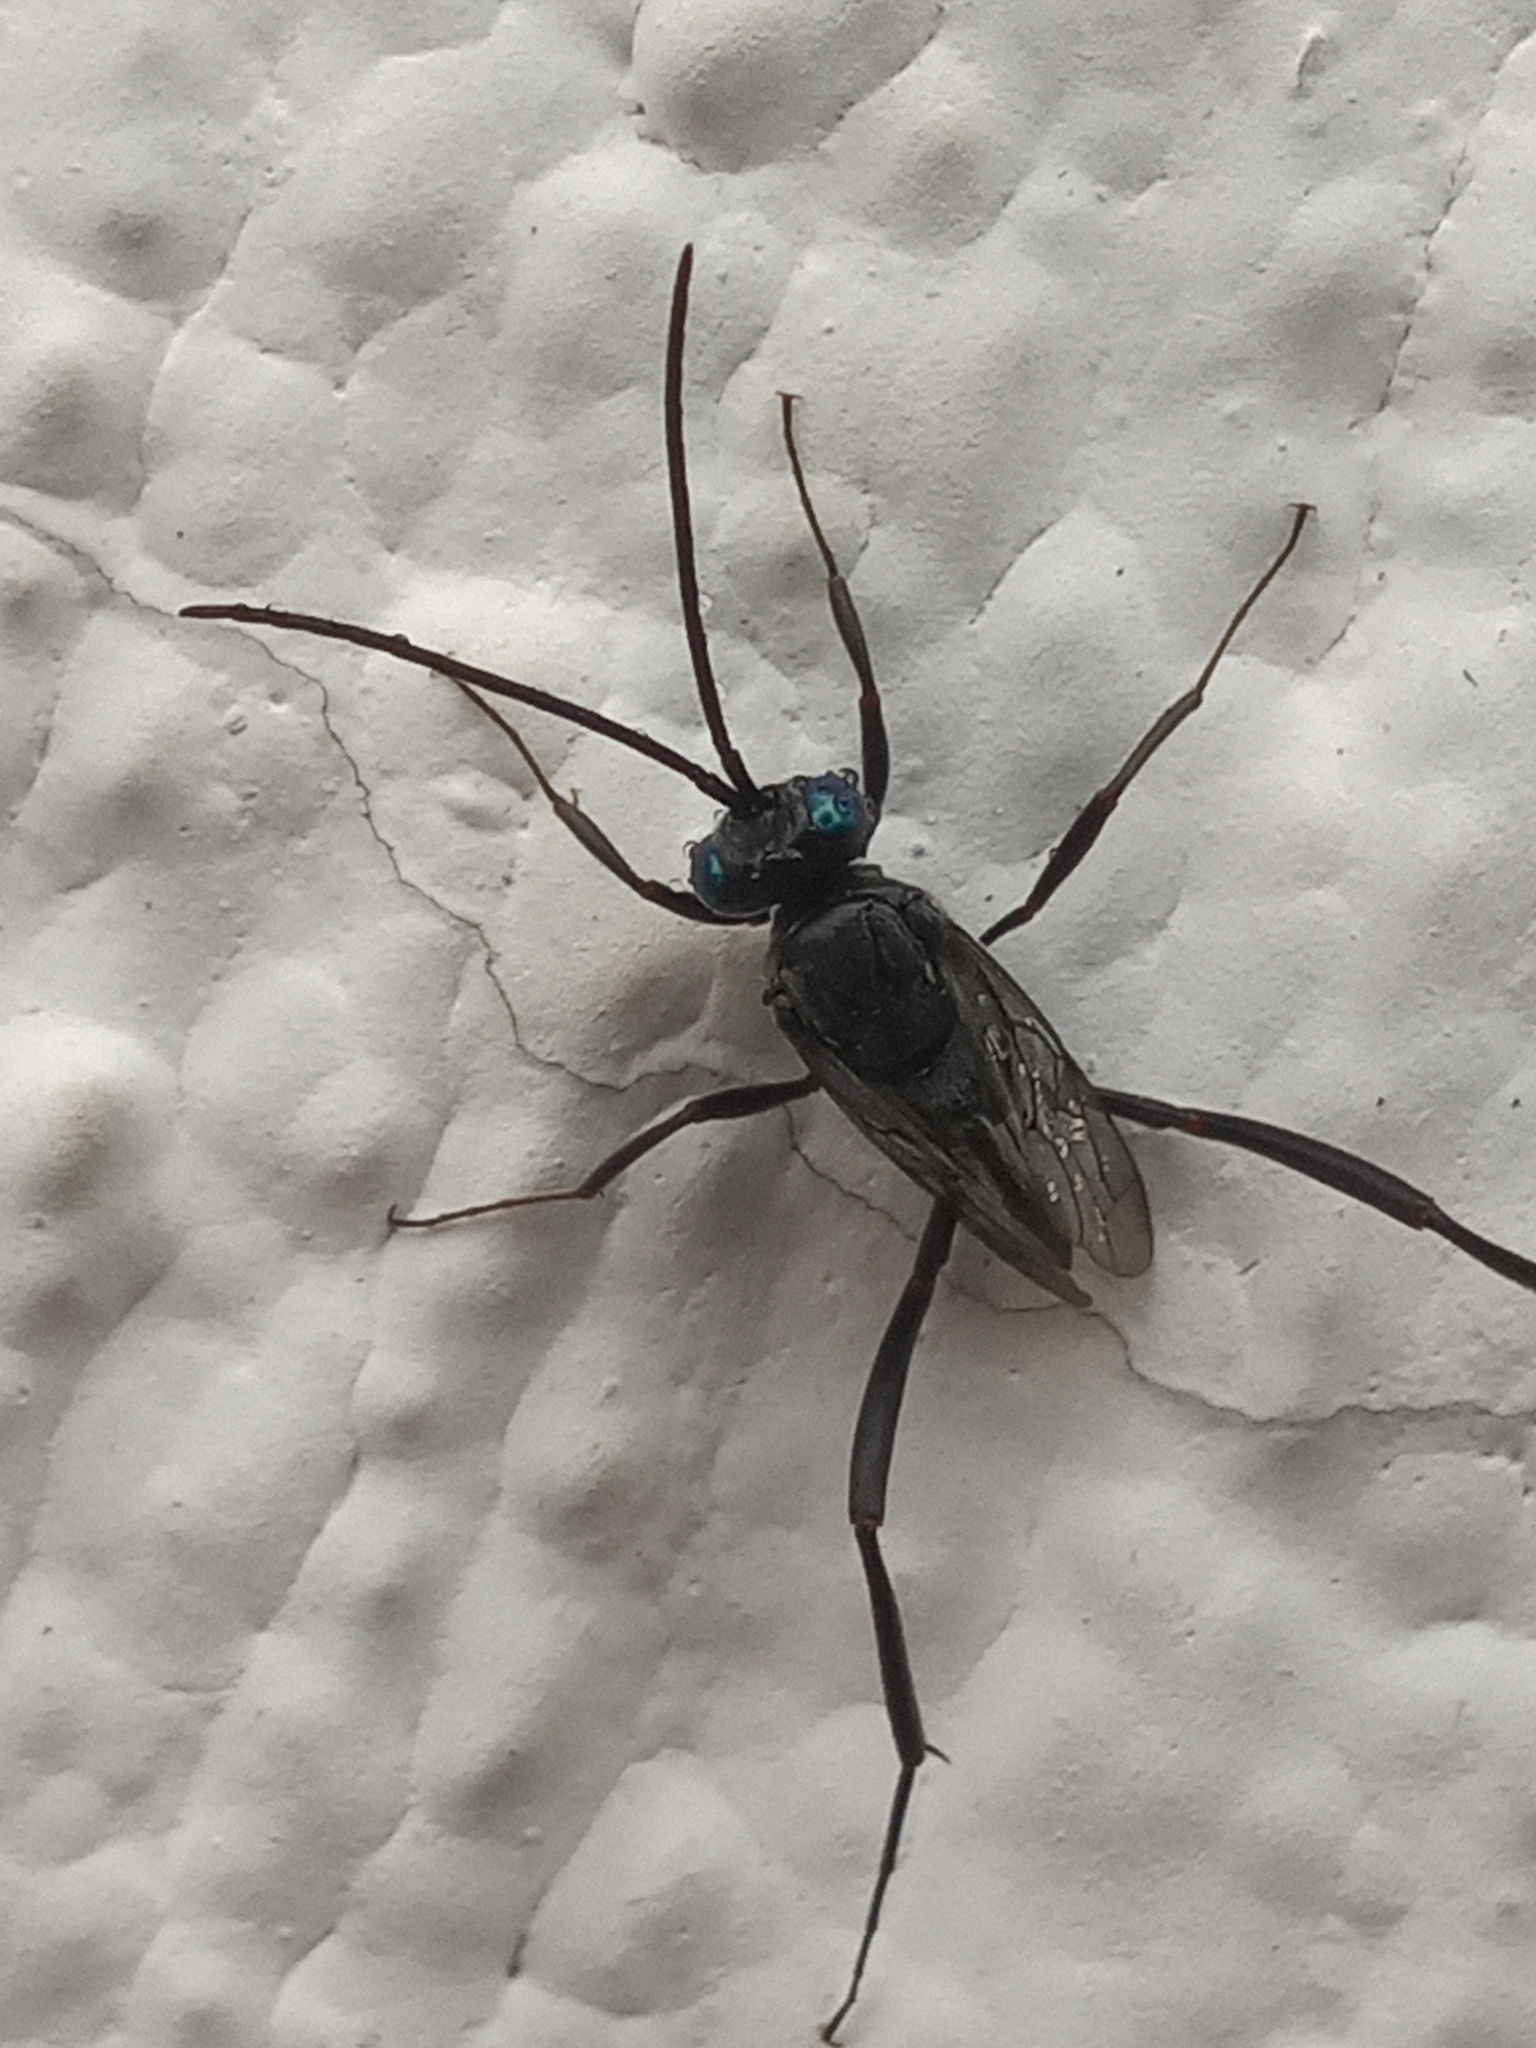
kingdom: Animalia
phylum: Arthropoda
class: Insecta
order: Hymenoptera
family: Evaniidae
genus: Evania
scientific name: Evania appendigaster
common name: Ensign wasp
